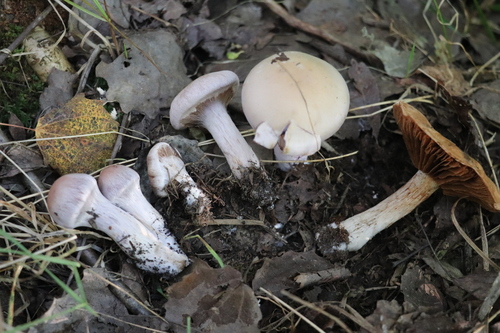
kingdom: Fungi
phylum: Basidiomycota
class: Agaricomycetes
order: Agaricales
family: Cortinariaceae
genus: Thaxterogaster
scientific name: Thaxterogaster porphyropus
